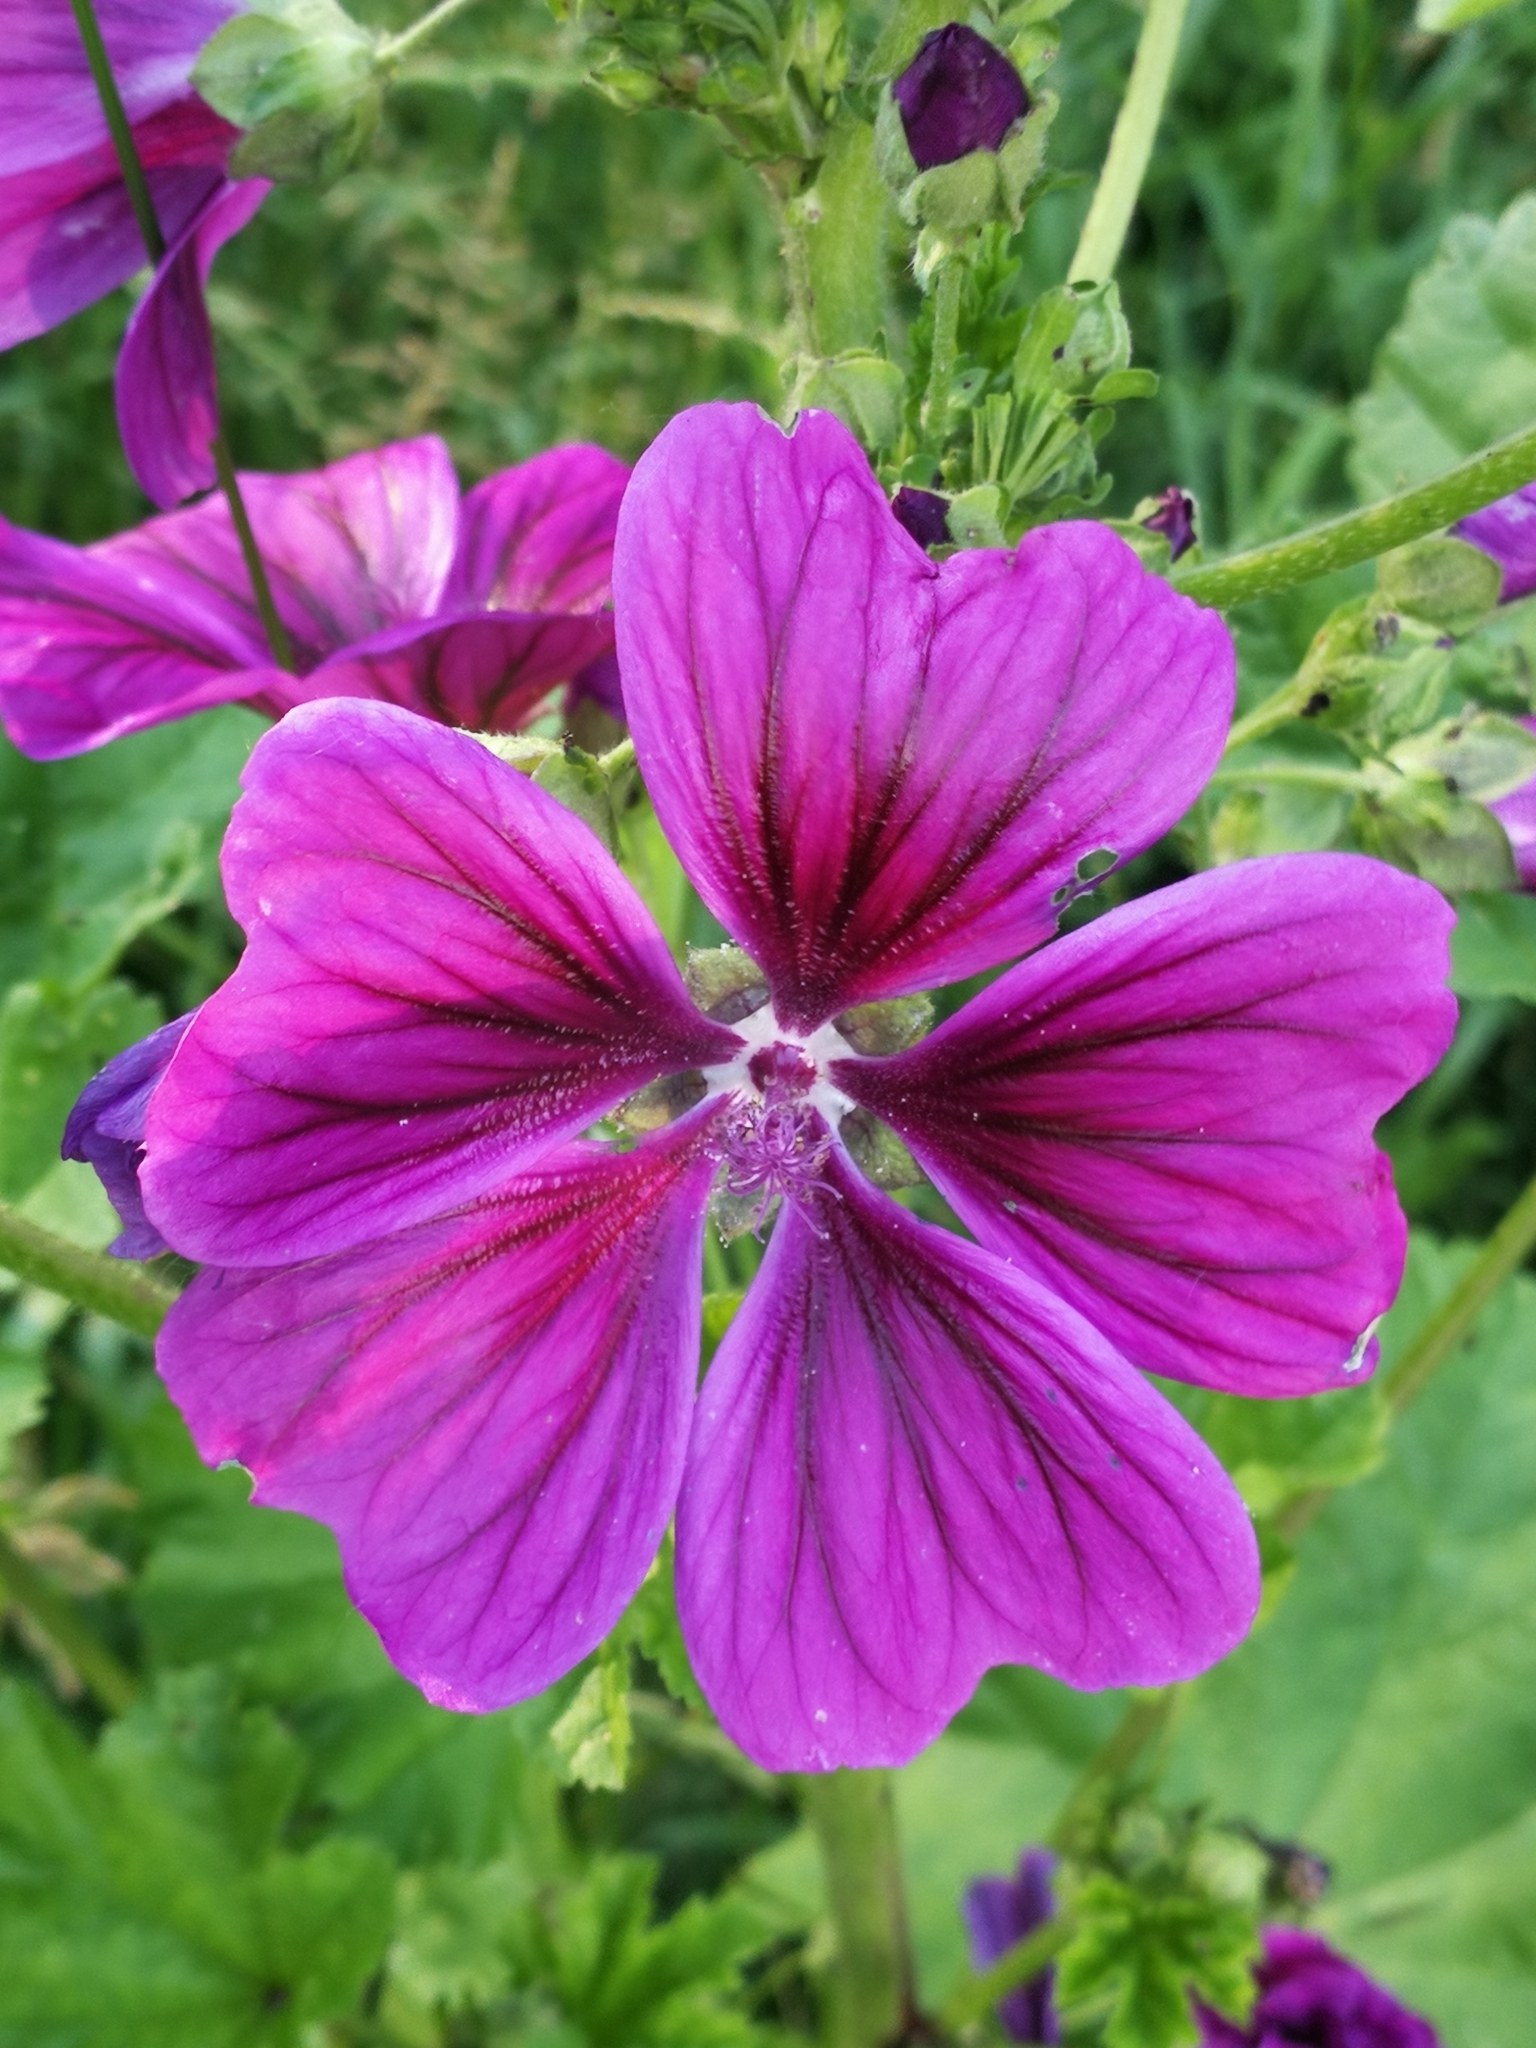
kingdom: Plantae
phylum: Tracheophyta
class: Magnoliopsida
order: Malvales
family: Malvaceae
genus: Malva
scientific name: Malva sylvestris
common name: Common mallow
